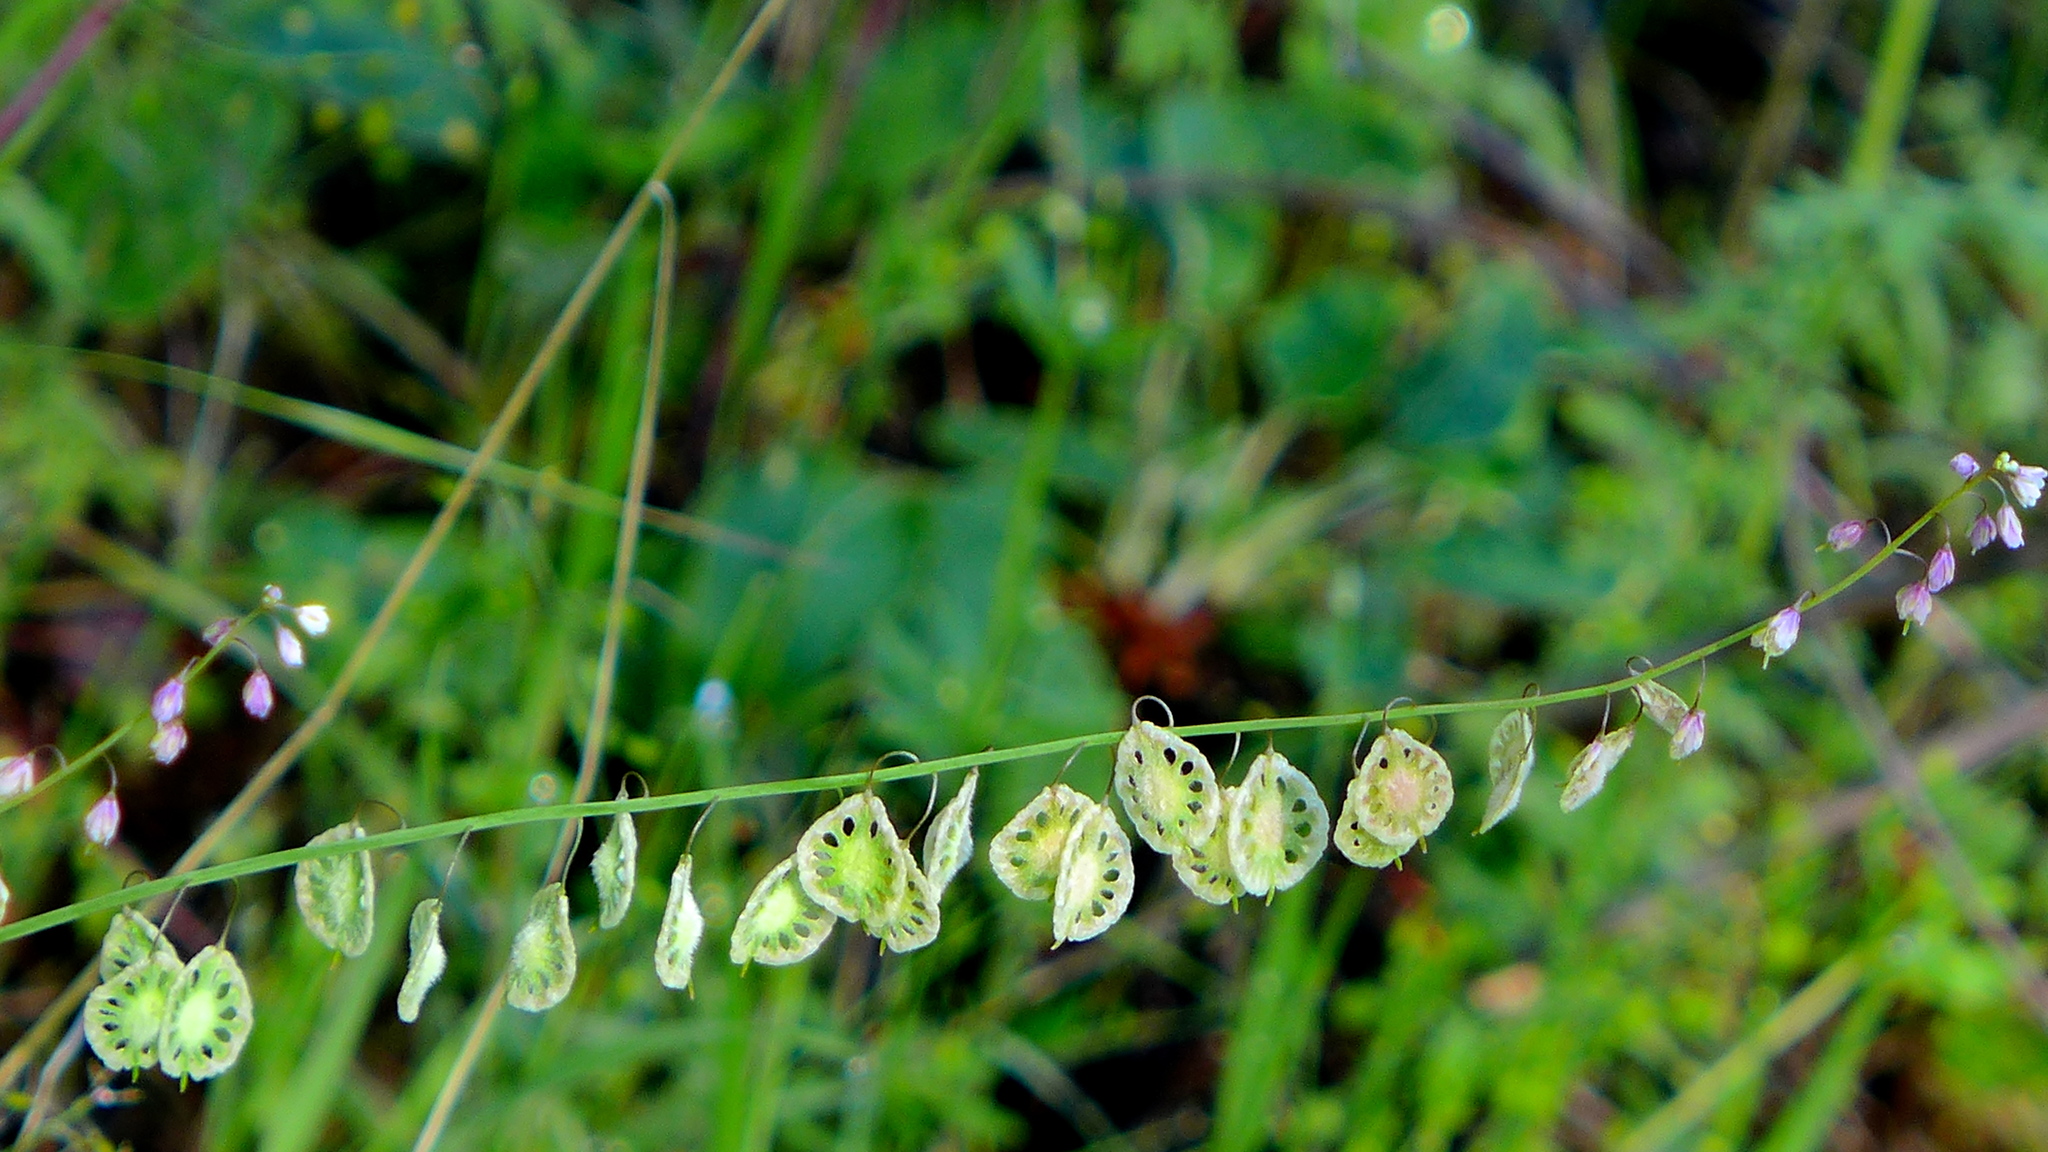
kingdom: Plantae
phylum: Tracheophyta
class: Magnoliopsida
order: Brassicales
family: Brassicaceae
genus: Thysanocarpus
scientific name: Thysanocarpus curvipes
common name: Sand fringepod
